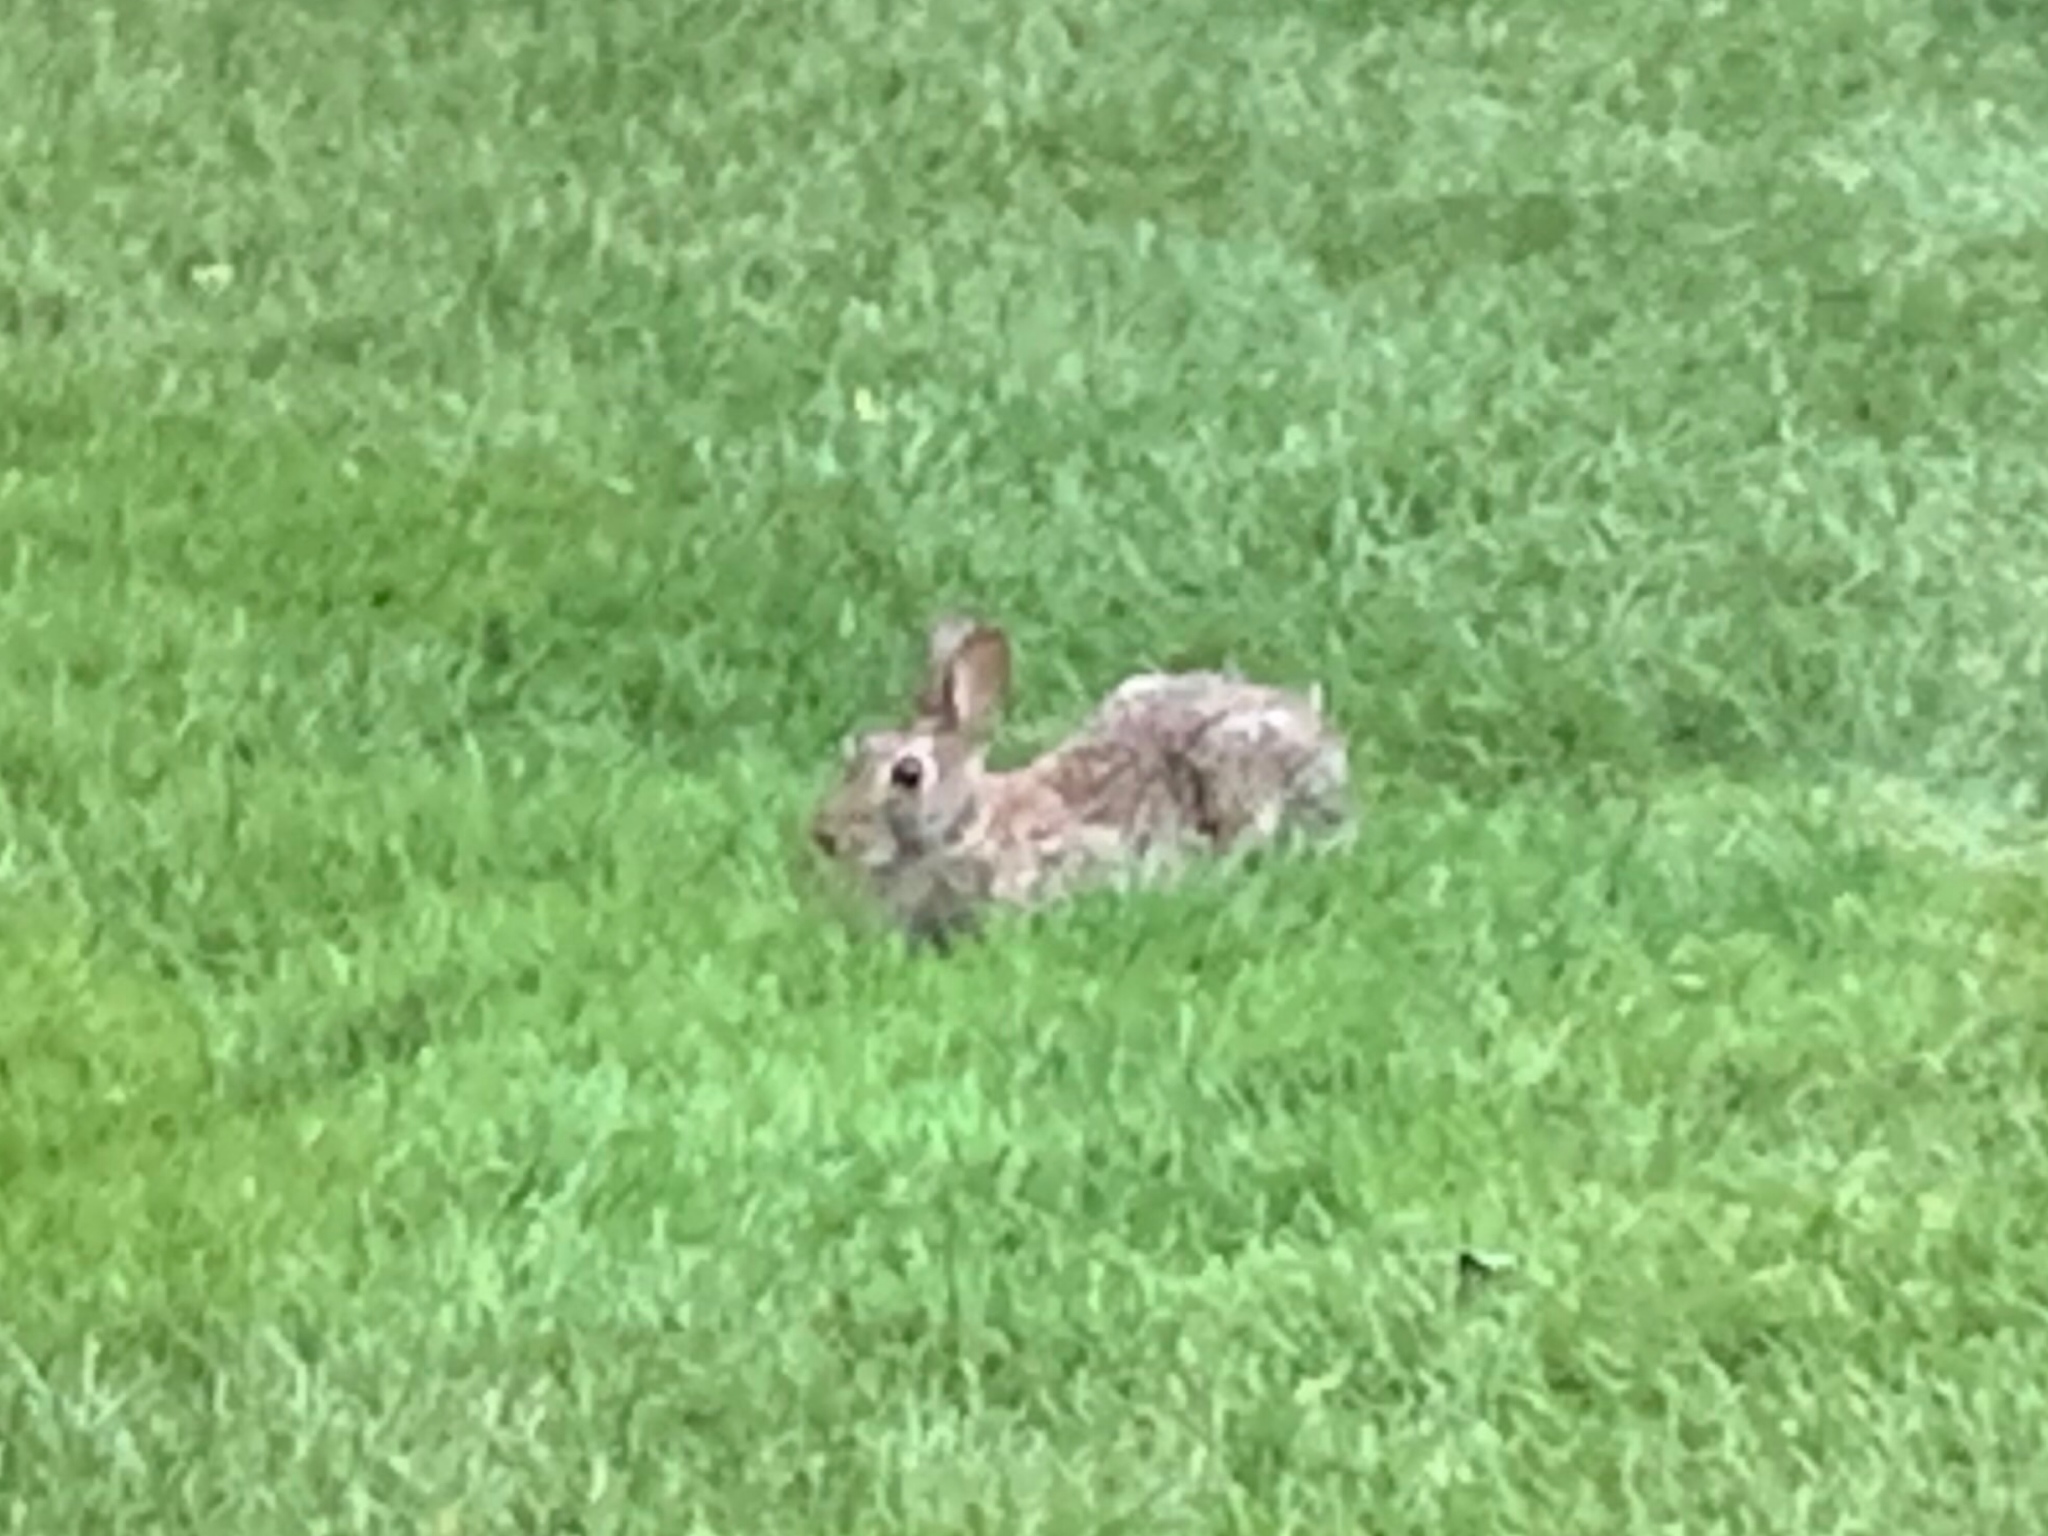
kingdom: Animalia
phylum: Chordata
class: Mammalia
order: Lagomorpha
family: Leporidae
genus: Sylvilagus
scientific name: Sylvilagus floridanus
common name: Eastern cottontail
